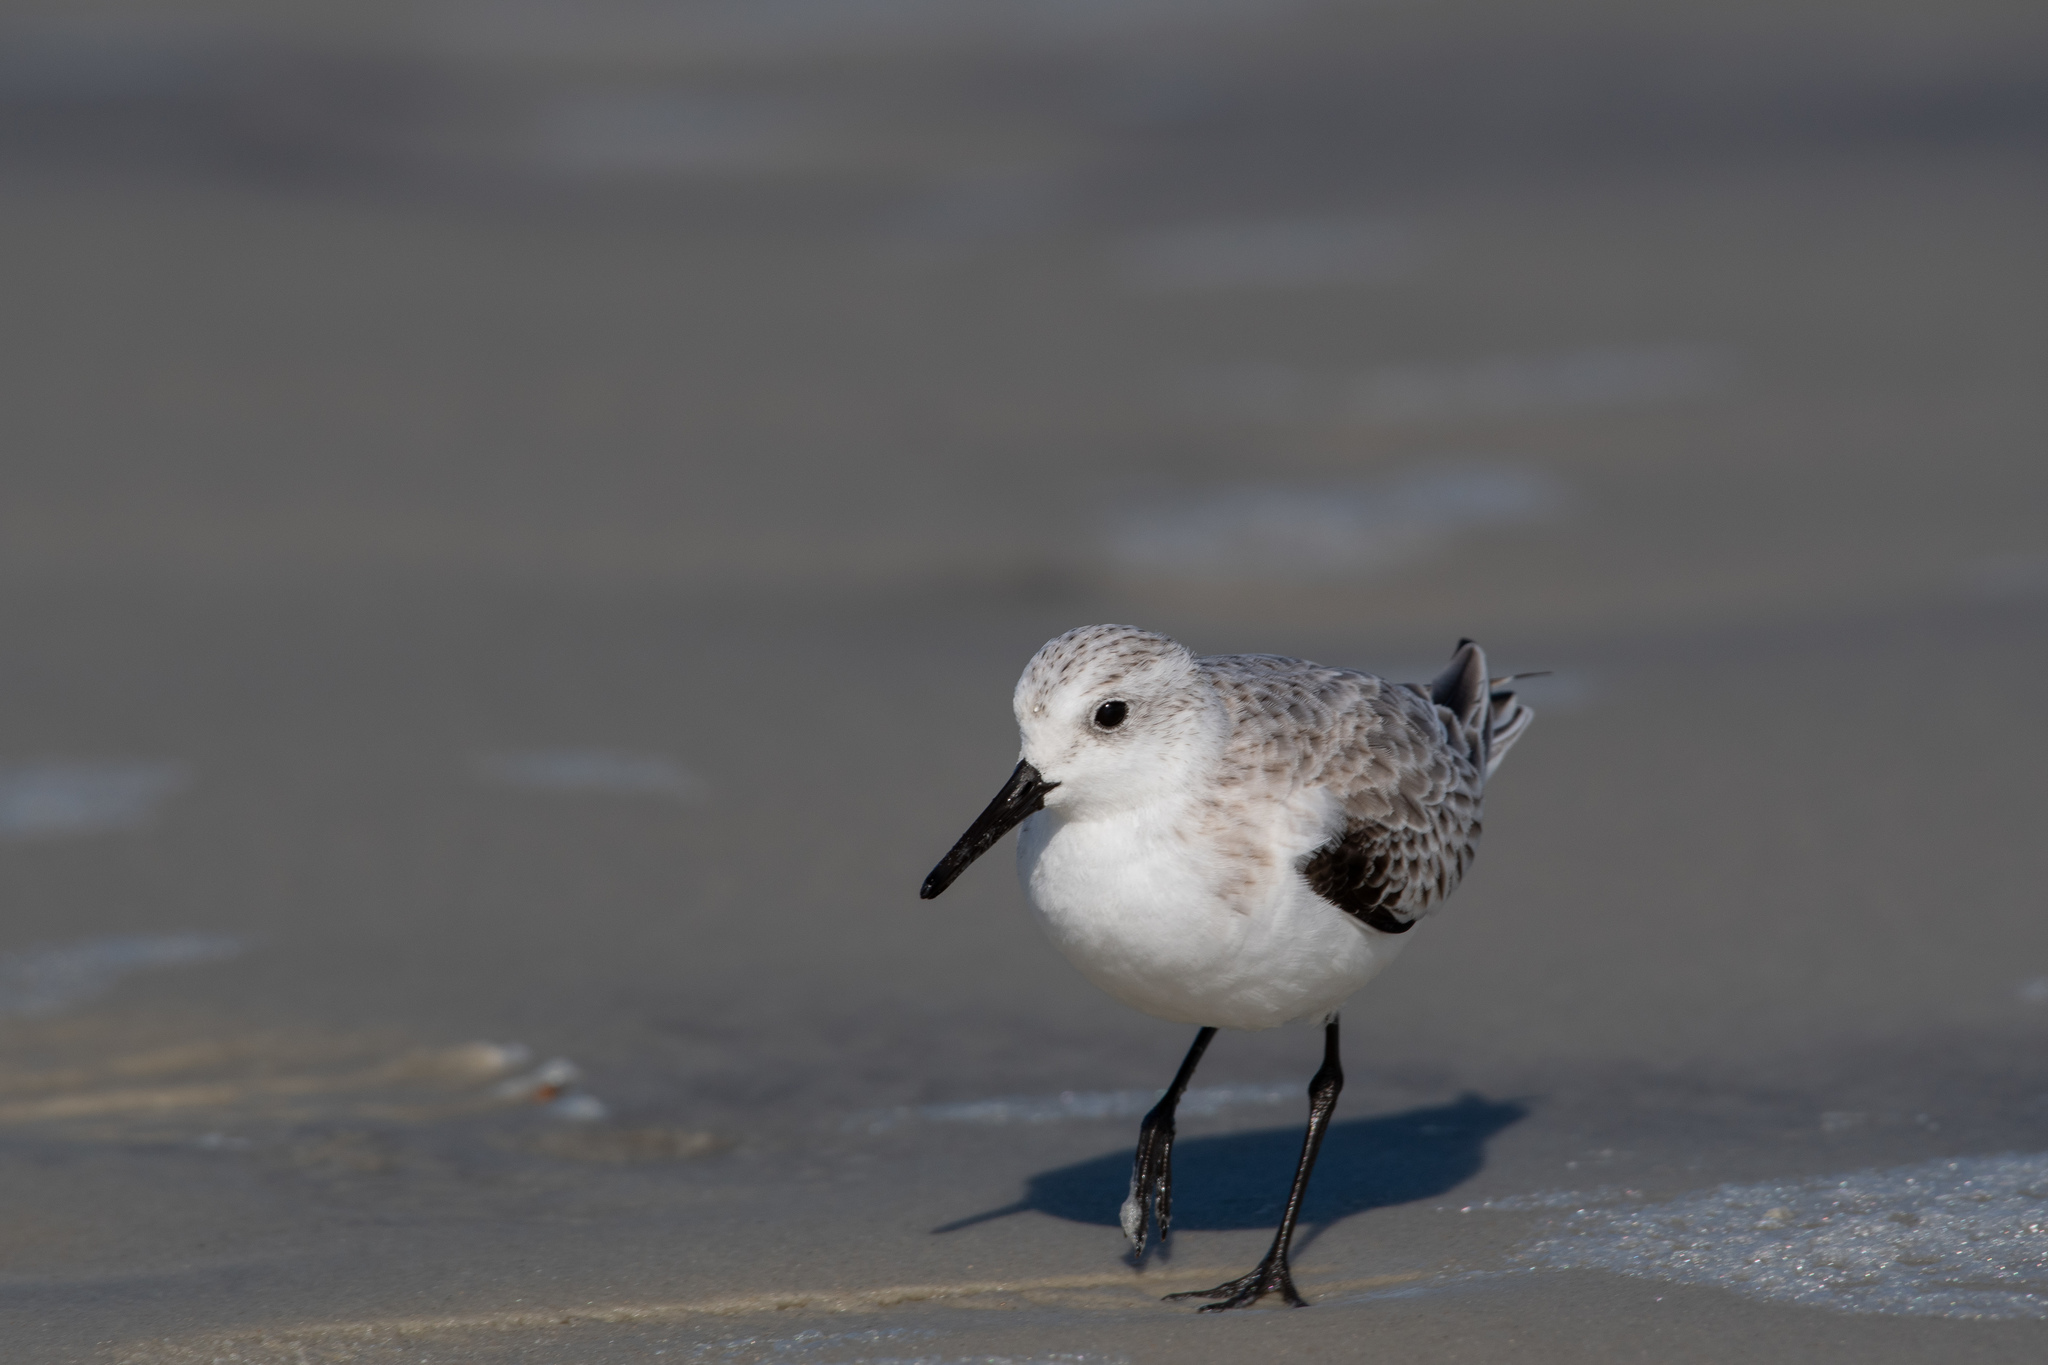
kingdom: Animalia
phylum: Chordata
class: Aves
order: Charadriiformes
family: Scolopacidae
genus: Calidris
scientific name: Calidris alba
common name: Sanderling
